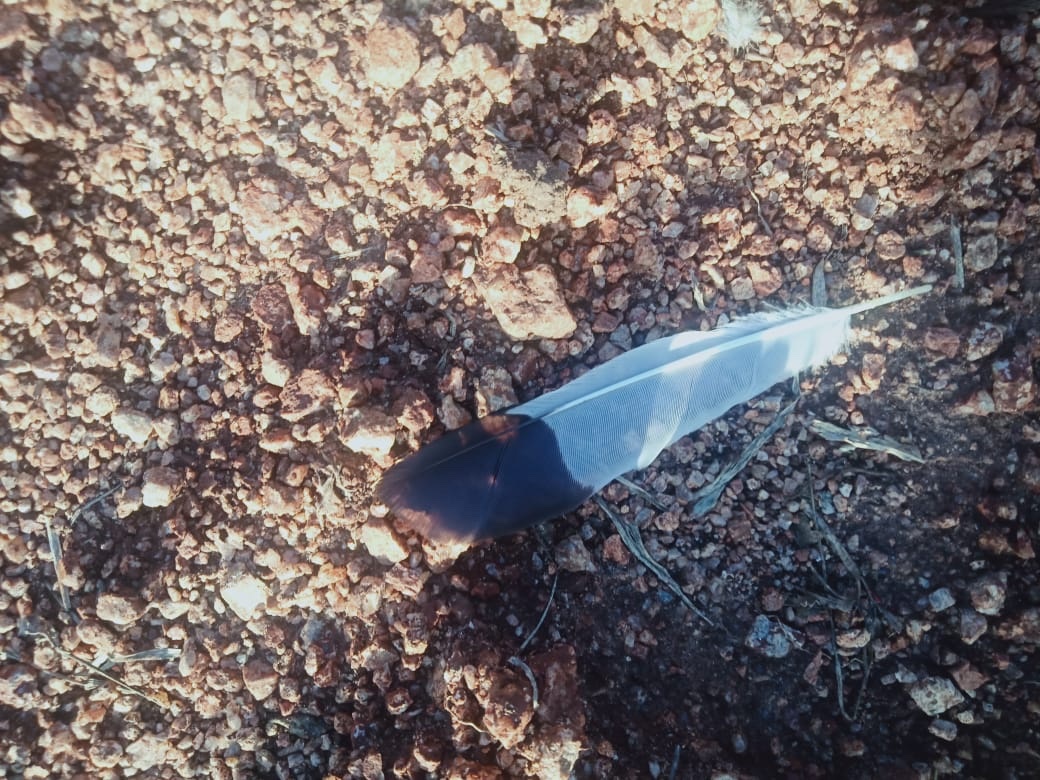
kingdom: Animalia
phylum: Chordata
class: Aves
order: Passeriformes
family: Sturnidae
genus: Acridotheres
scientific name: Acridotheres tristis
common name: Common myna
